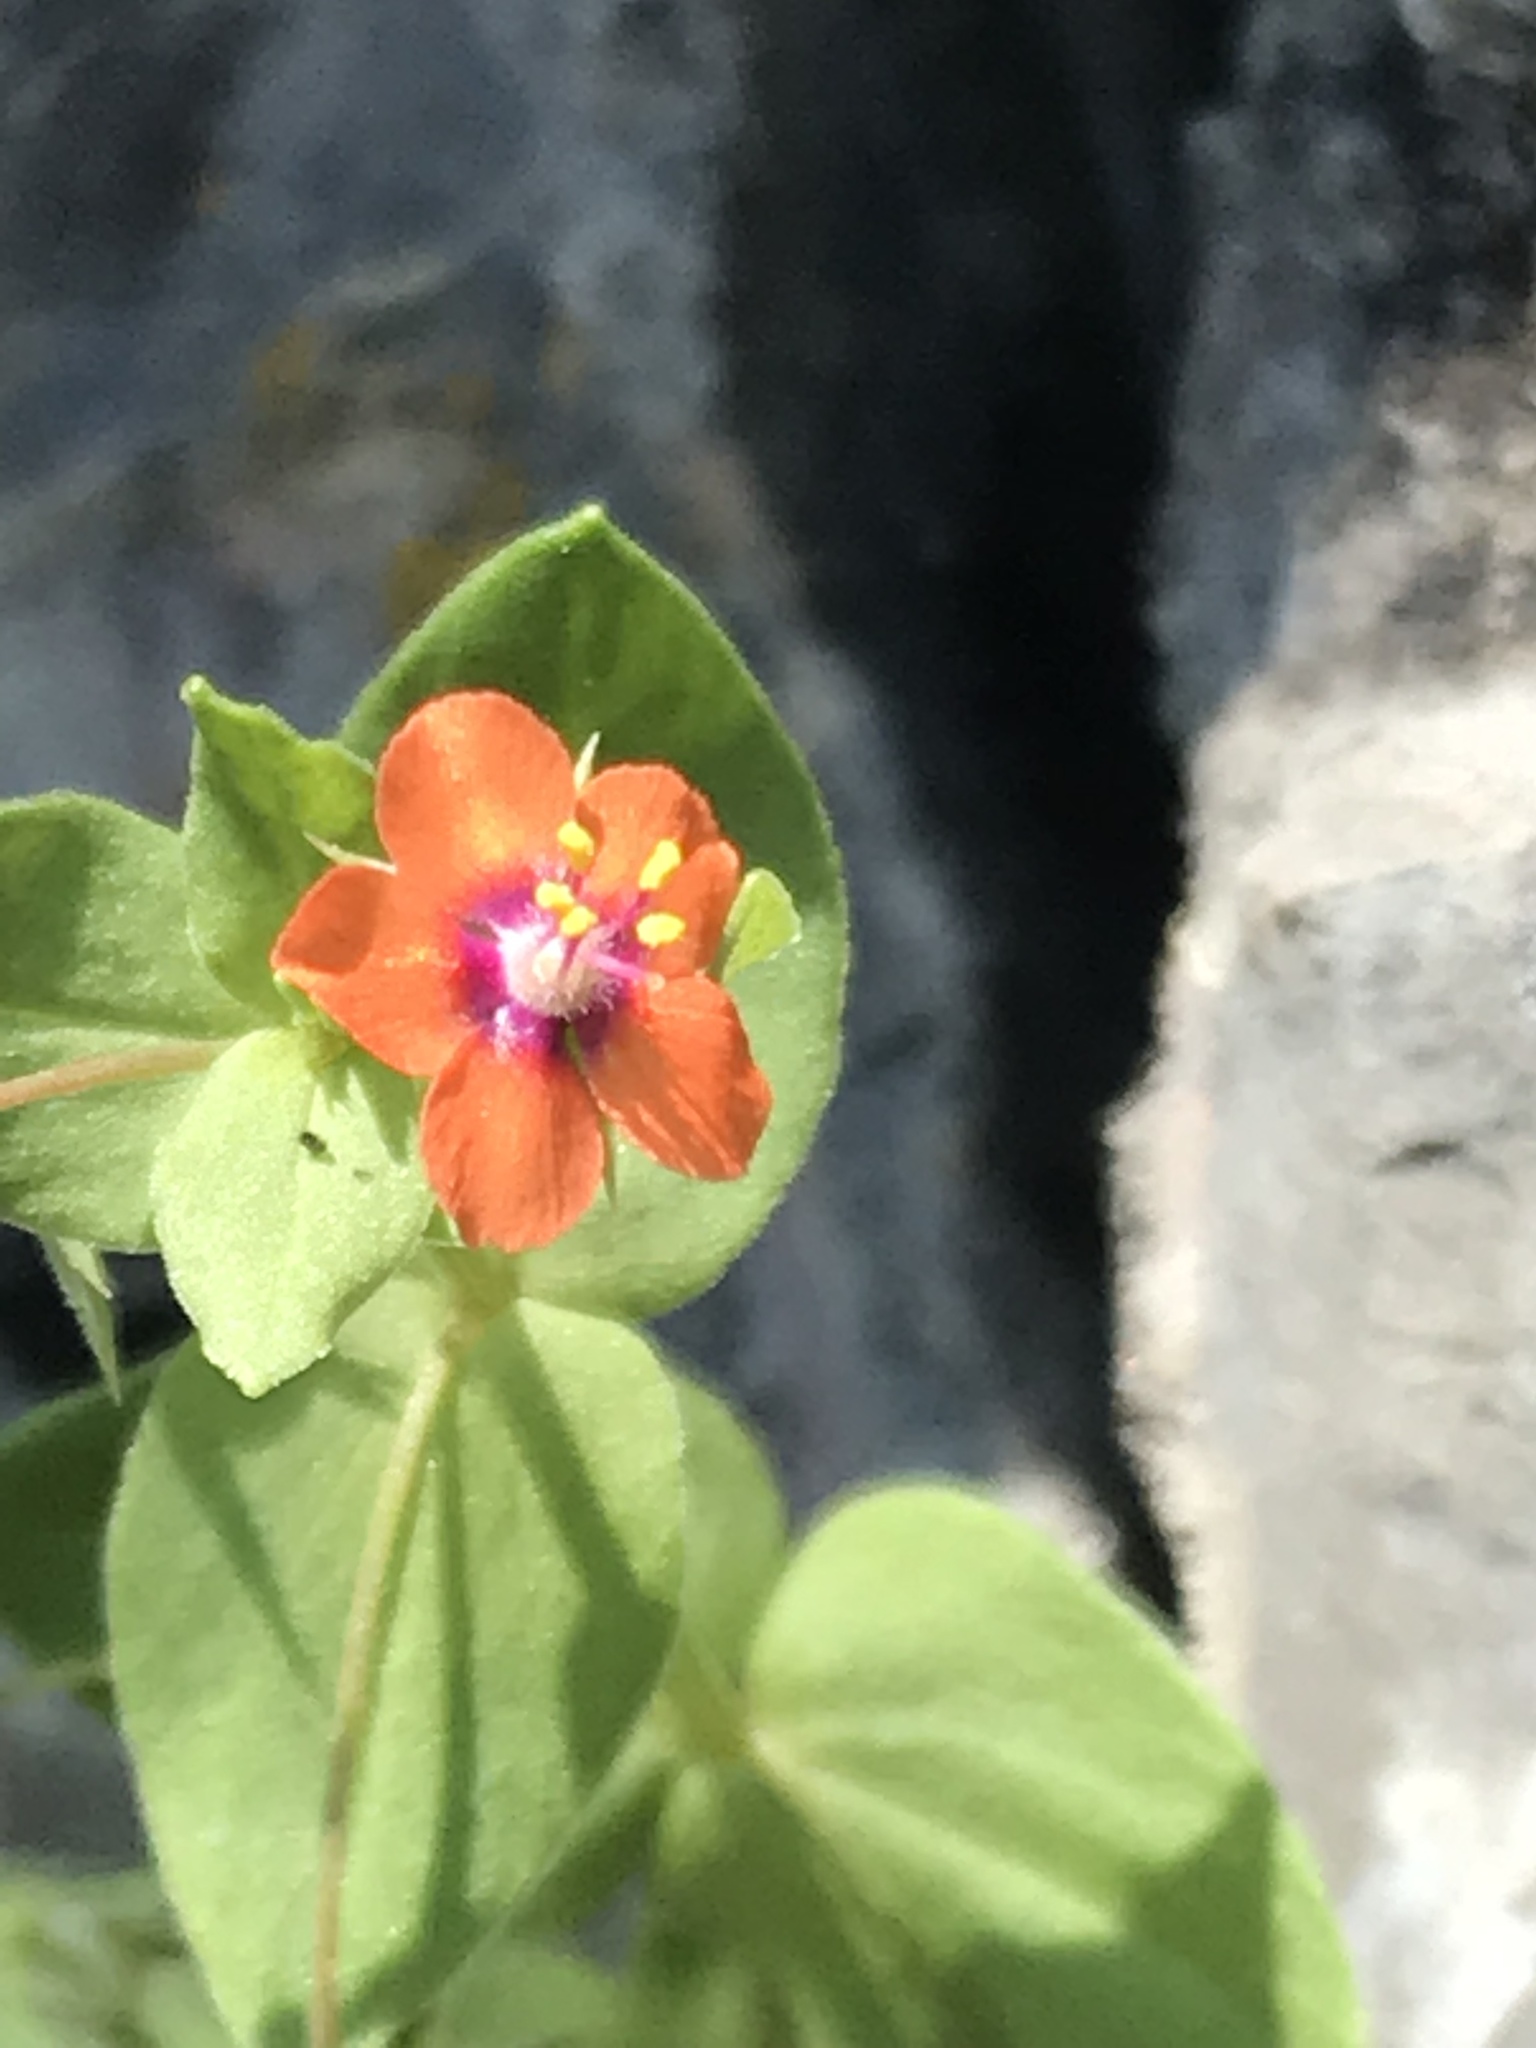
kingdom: Plantae
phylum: Tracheophyta
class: Magnoliopsida
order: Ericales
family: Primulaceae
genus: Lysimachia
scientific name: Lysimachia arvensis
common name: Scarlet pimpernel
